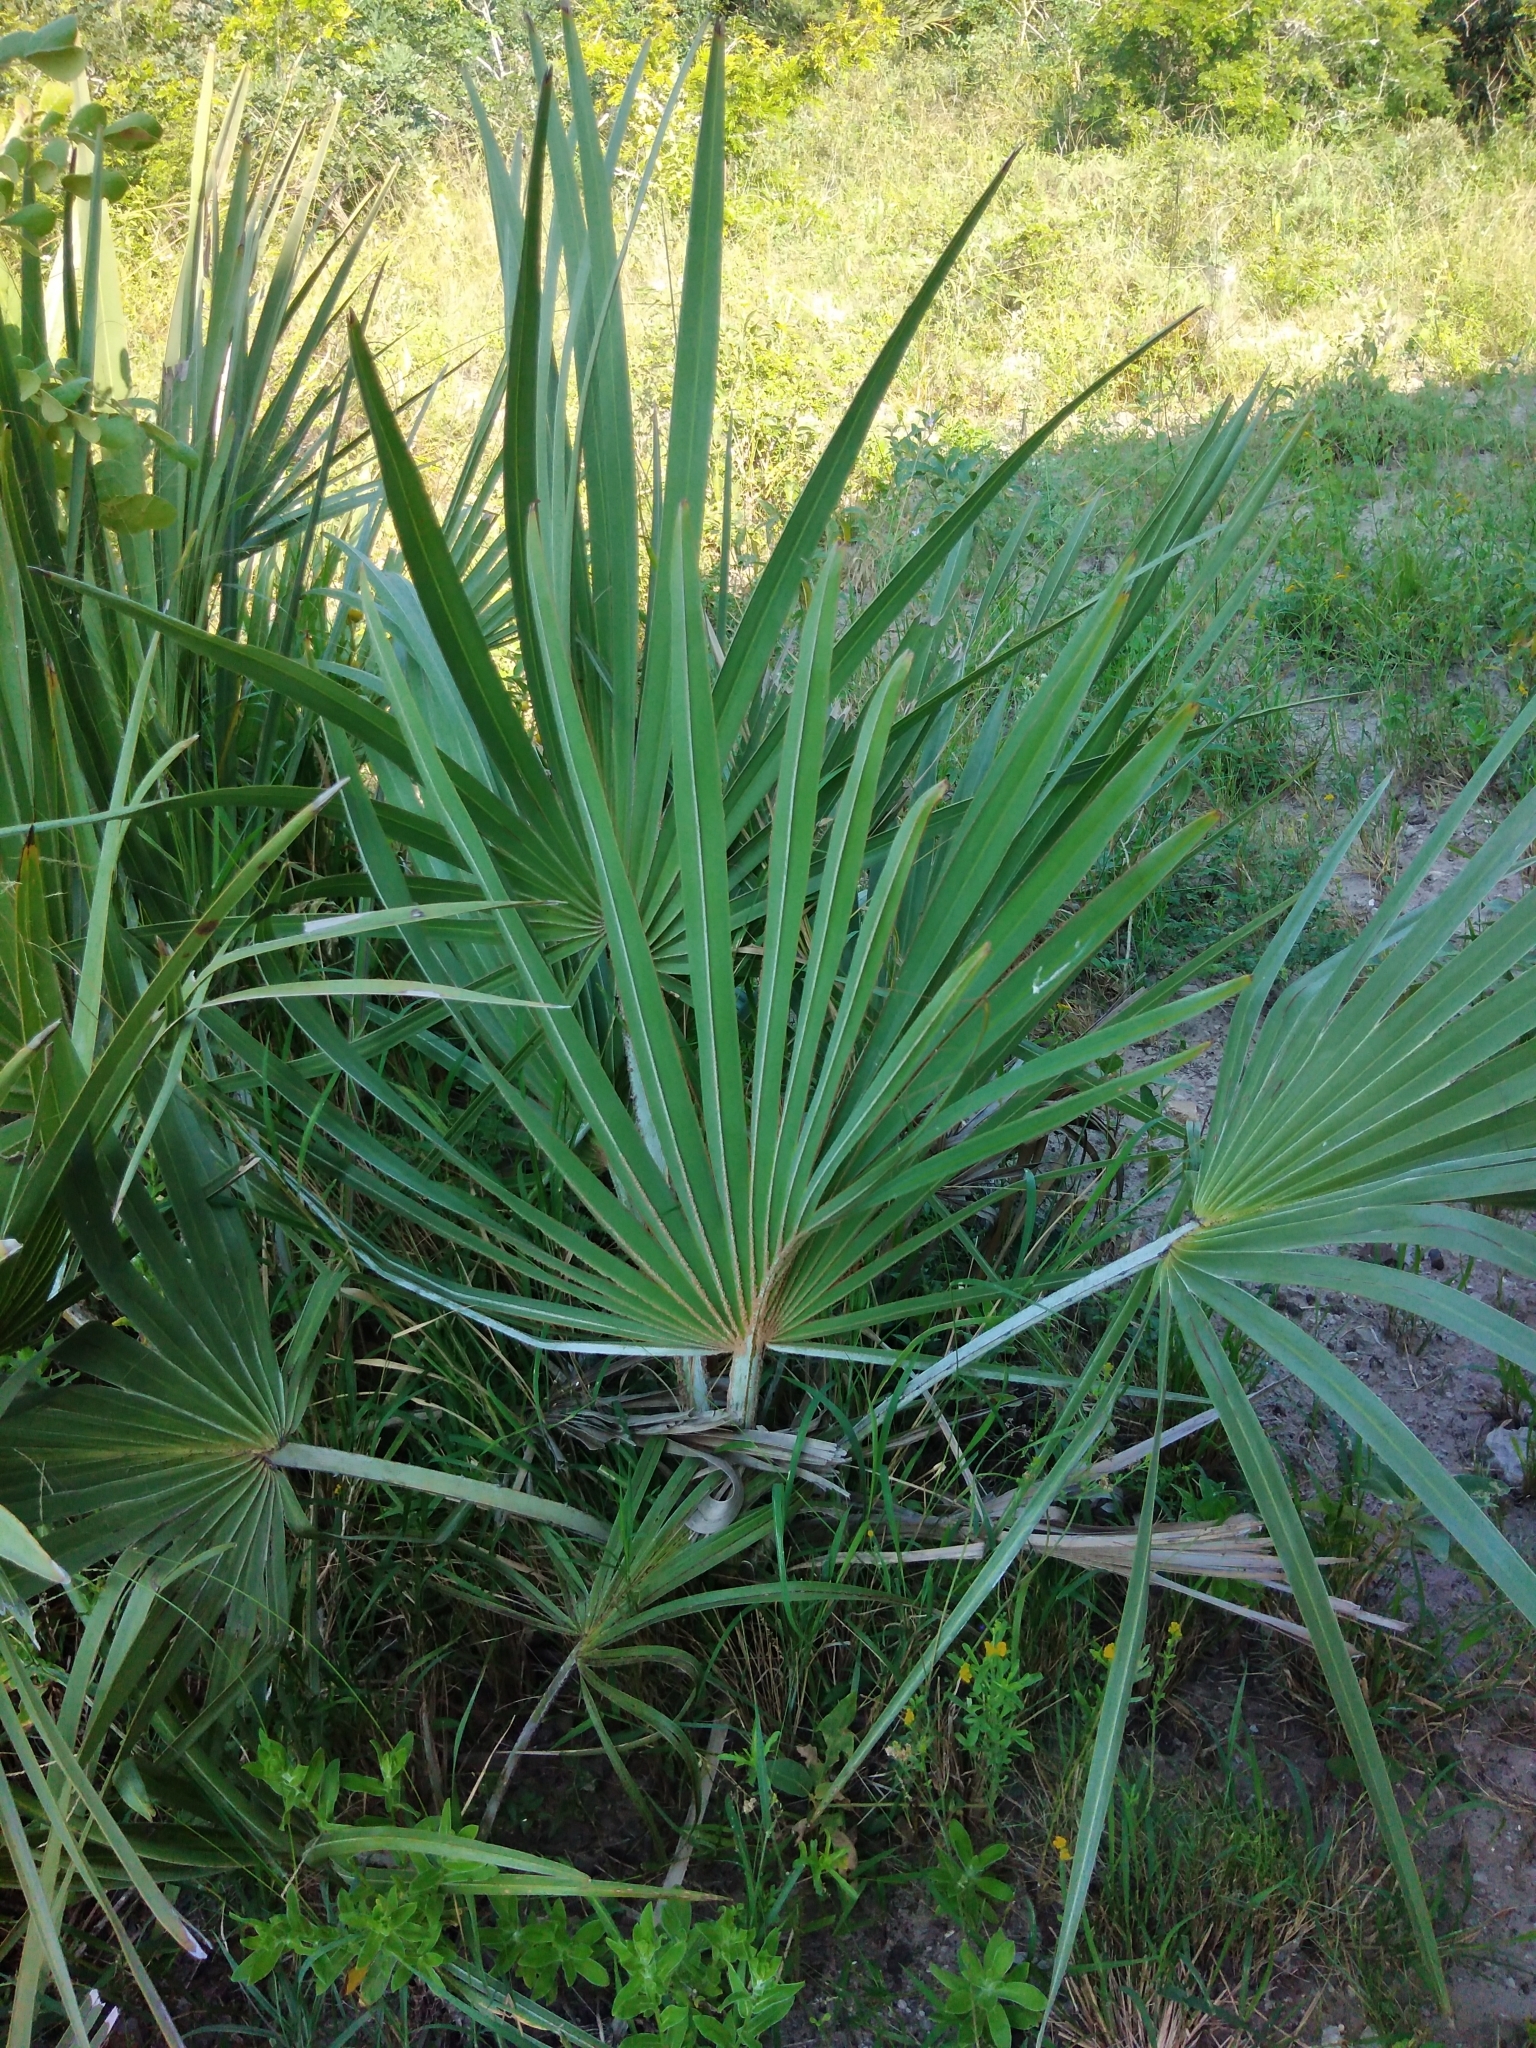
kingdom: Plantae
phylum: Tracheophyta
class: Liliopsida
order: Arecales
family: Arecaceae
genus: Hyphaene
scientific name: Hyphaene coriacea
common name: Ilala palm
